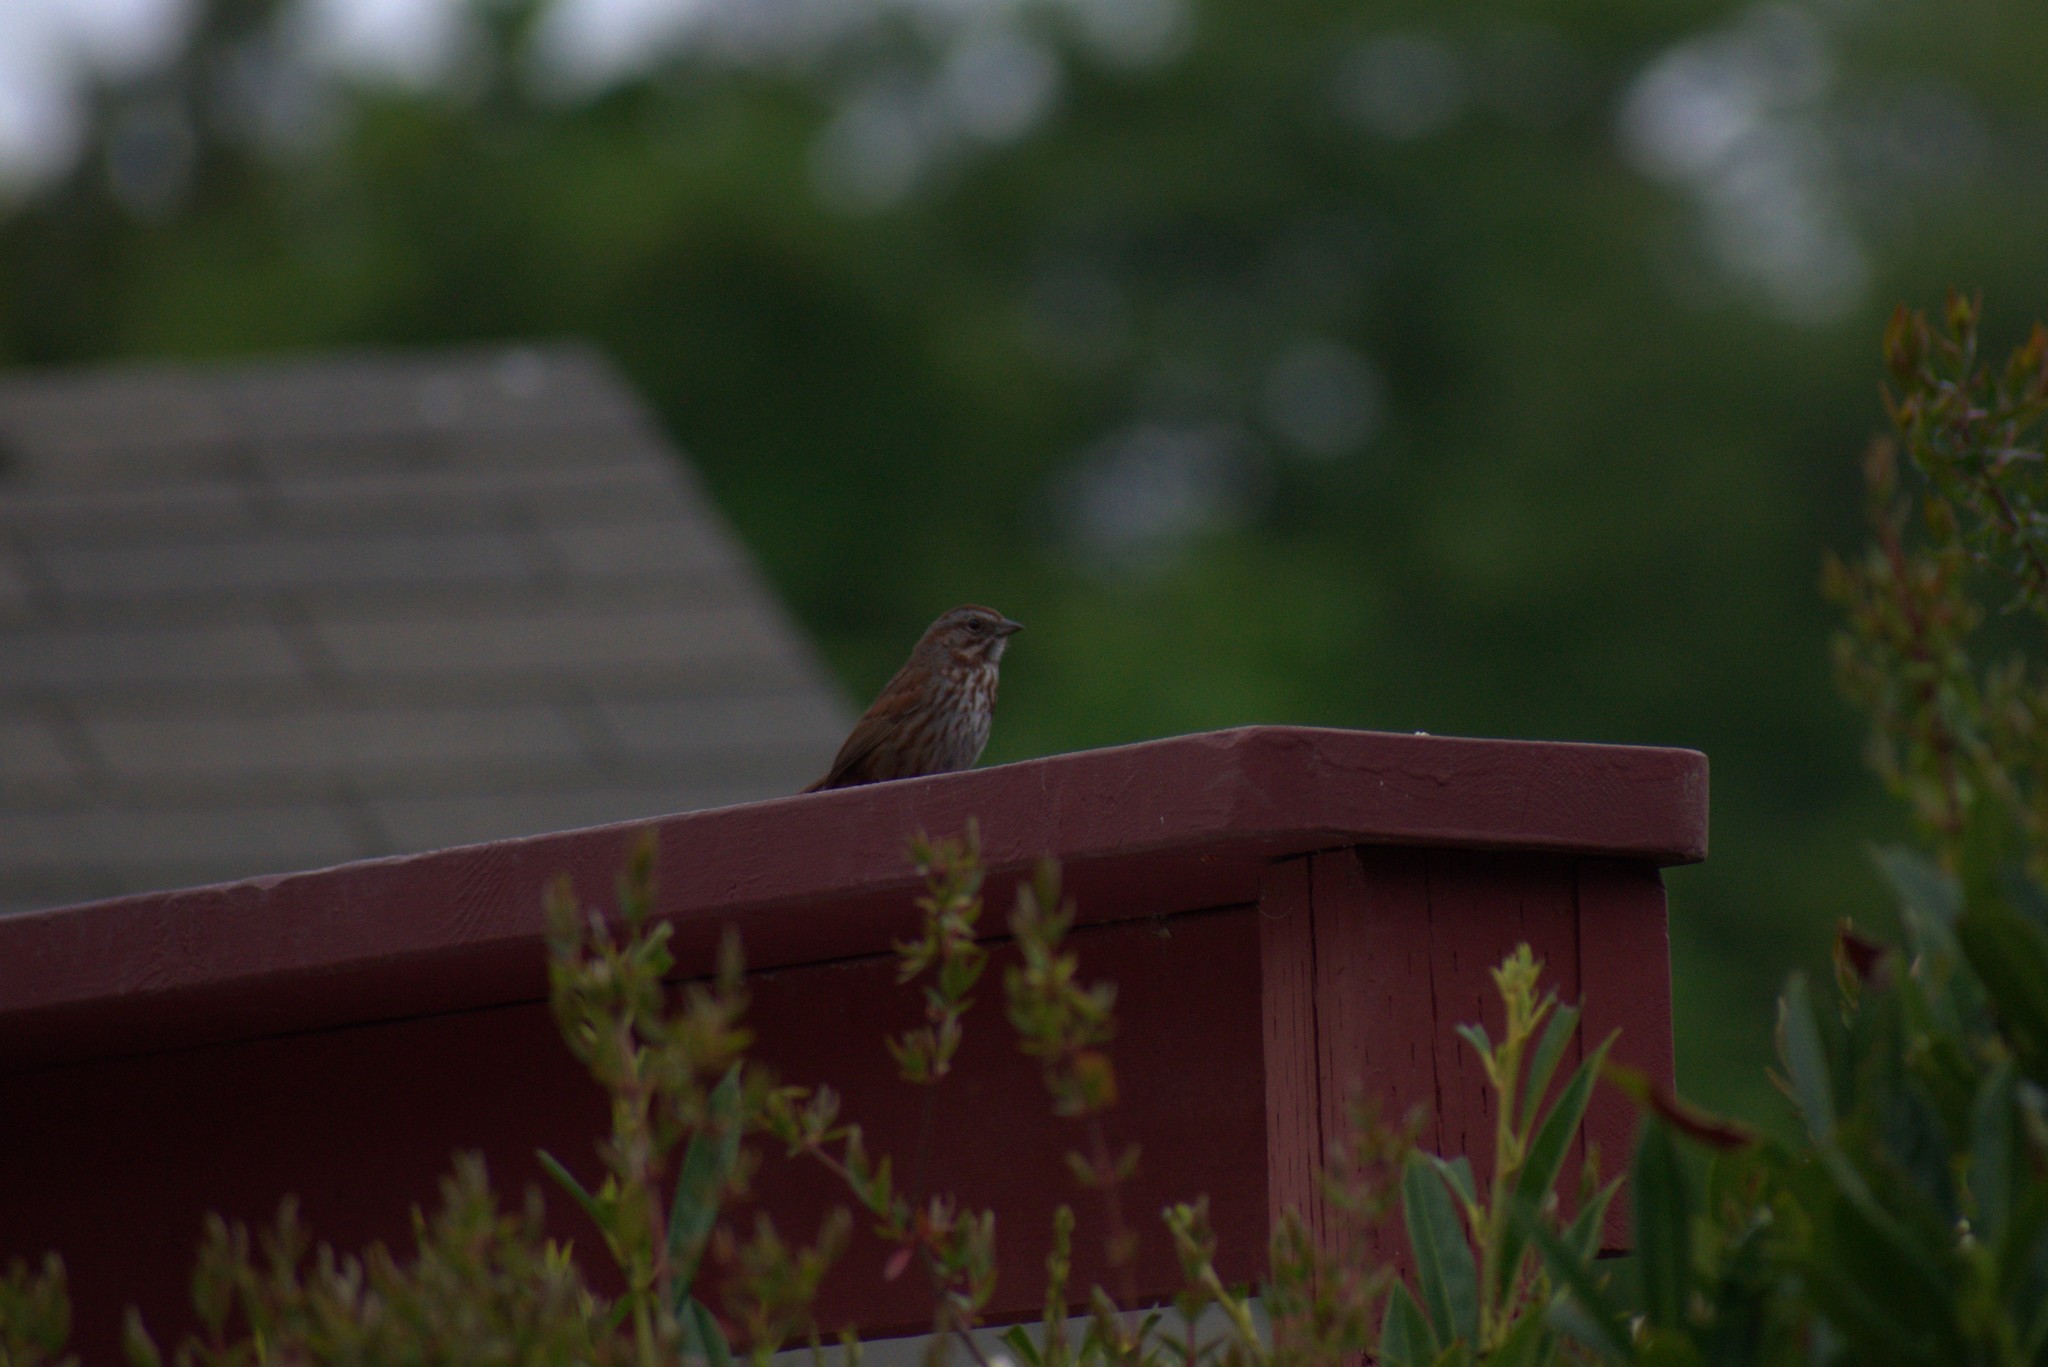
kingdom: Animalia
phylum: Chordata
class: Aves
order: Passeriformes
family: Passerellidae
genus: Melospiza
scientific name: Melospiza melodia
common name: Song sparrow
